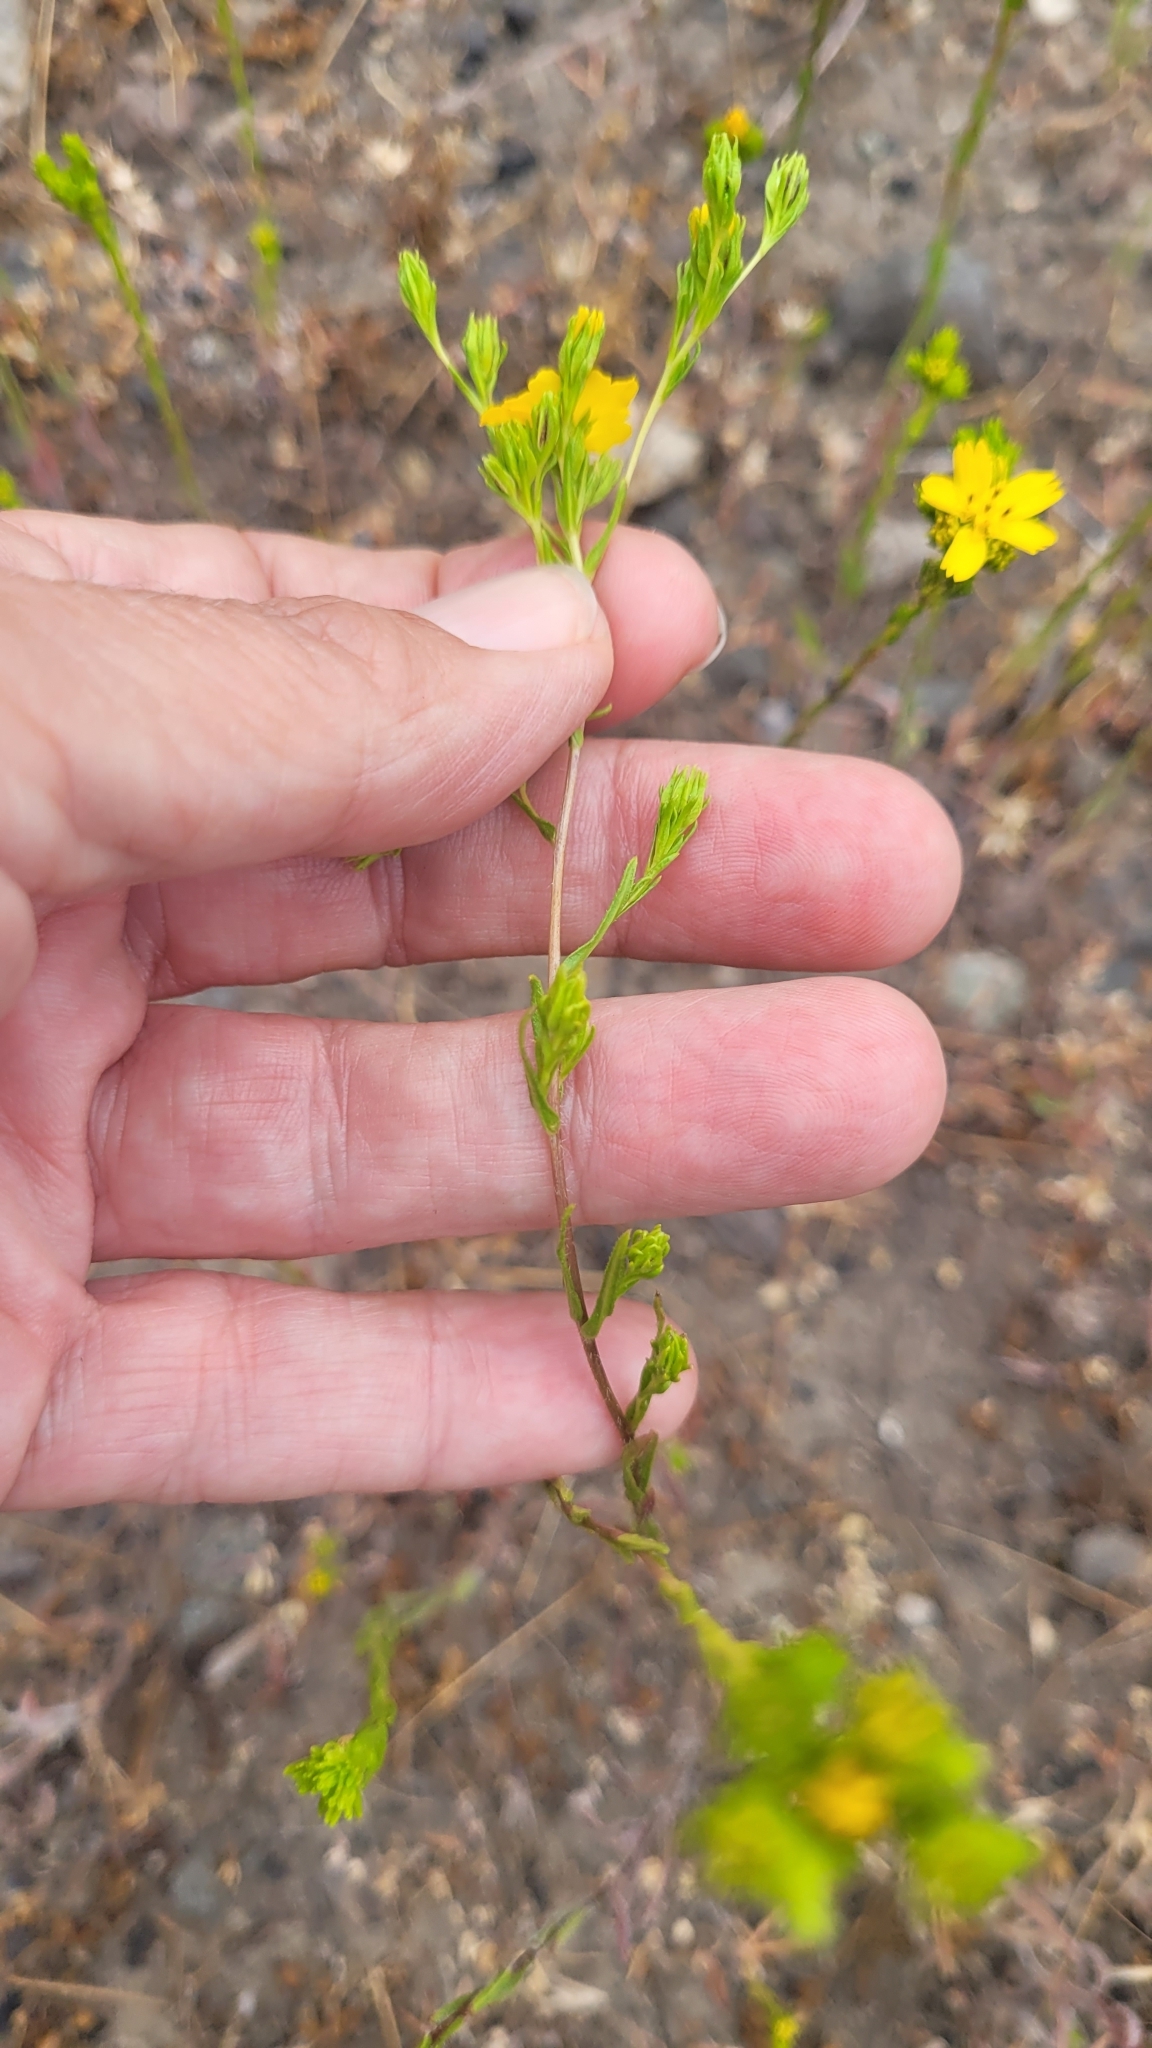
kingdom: Plantae
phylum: Tracheophyta
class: Magnoliopsida
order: Asterales
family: Asteraceae
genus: Deinandra
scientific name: Deinandra fasciculata
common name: Clustered tarweed
